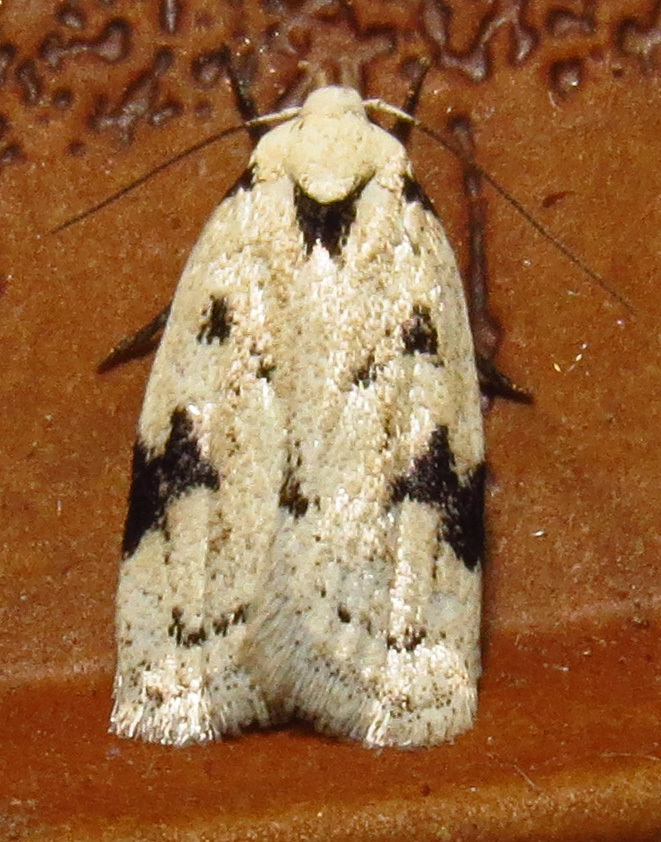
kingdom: Animalia
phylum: Arthropoda
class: Insecta
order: Lepidoptera
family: Oecophoridae
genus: Inga
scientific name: Inga sparsiciliella
